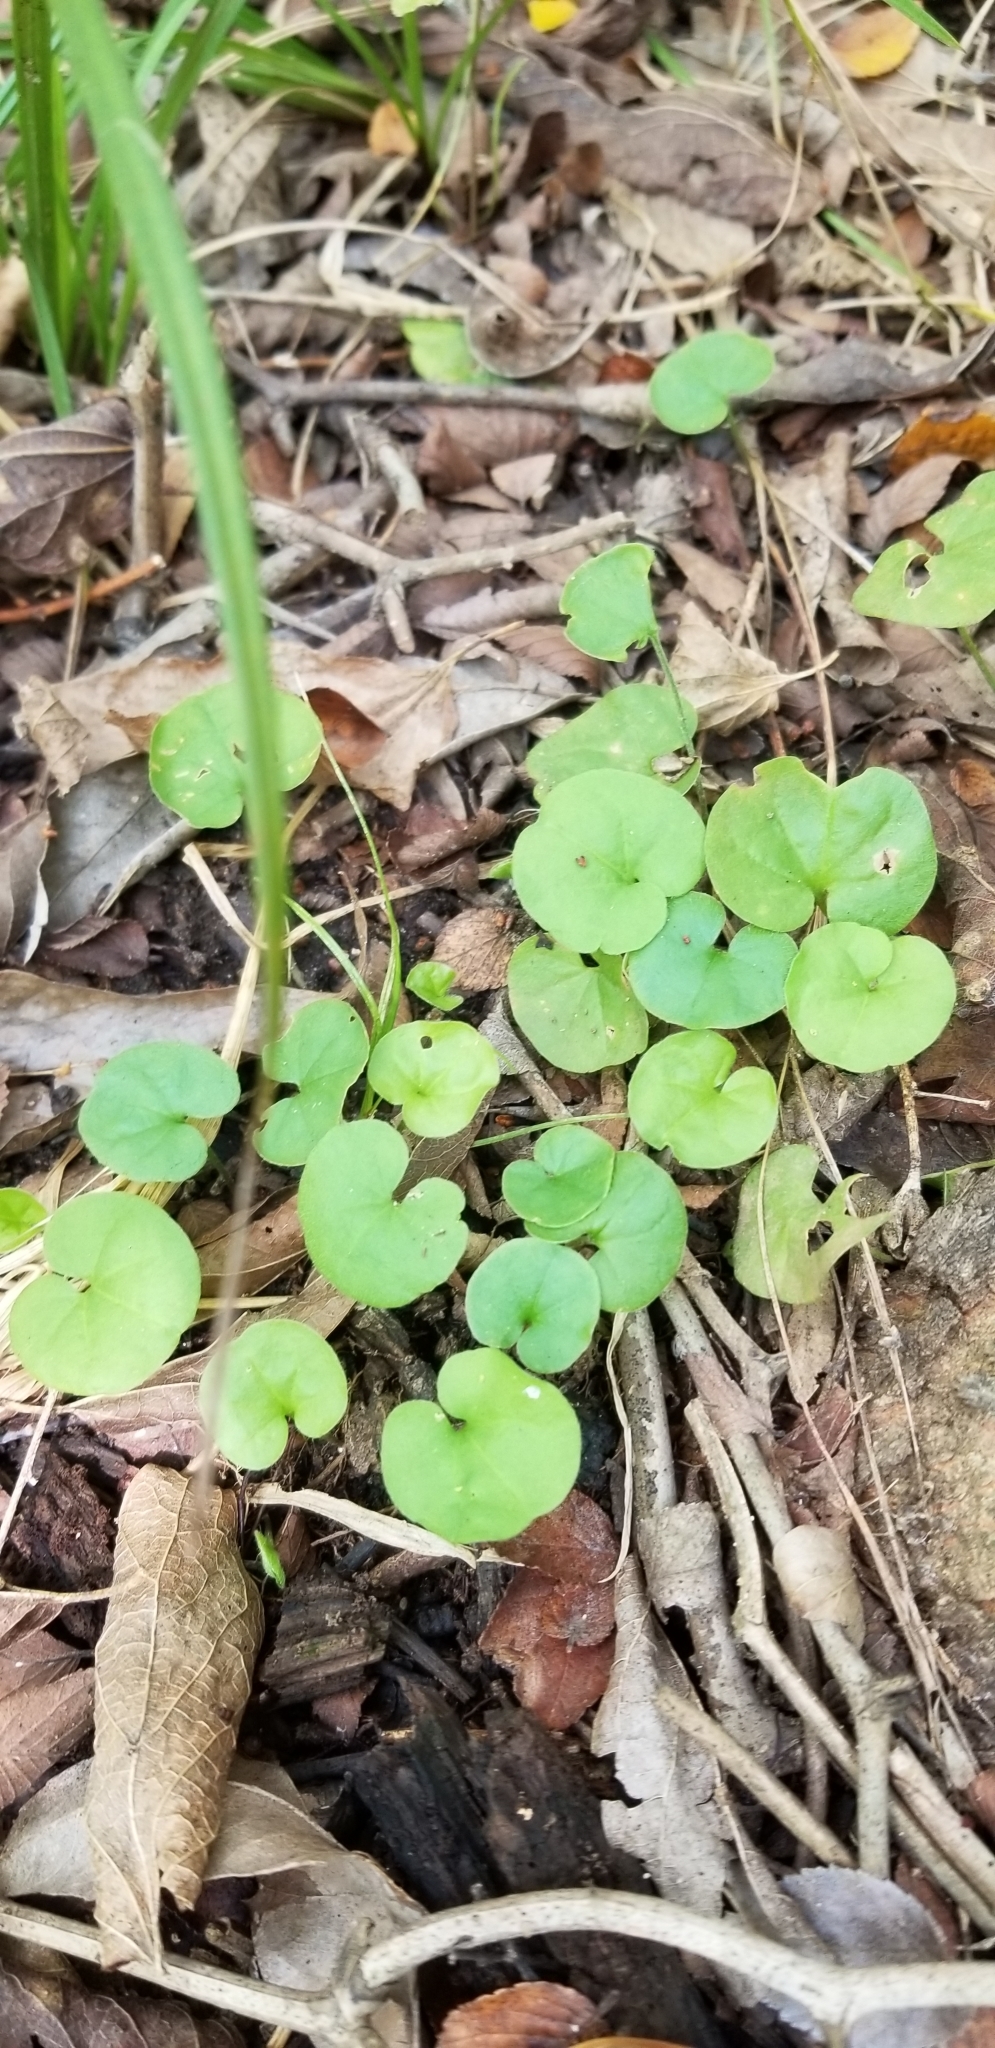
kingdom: Plantae
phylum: Tracheophyta
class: Magnoliopsida
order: Solanales
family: Convolvulaceae
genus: Dichondra
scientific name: Dichondra carolinensis
